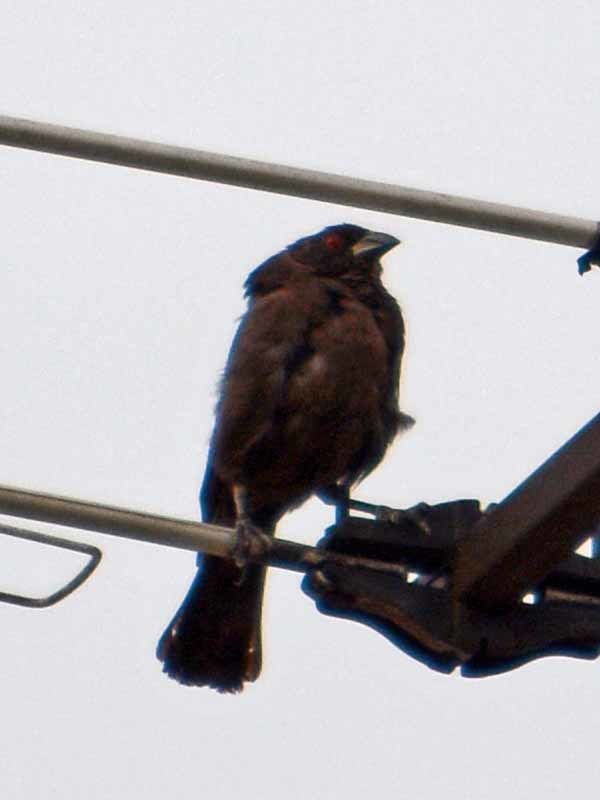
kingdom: Animalia
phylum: Chordata
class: Aves
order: Passeriformes
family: Icteridae
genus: Molothrus
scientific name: Molothrus aeneus
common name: Bronzed cowbird
